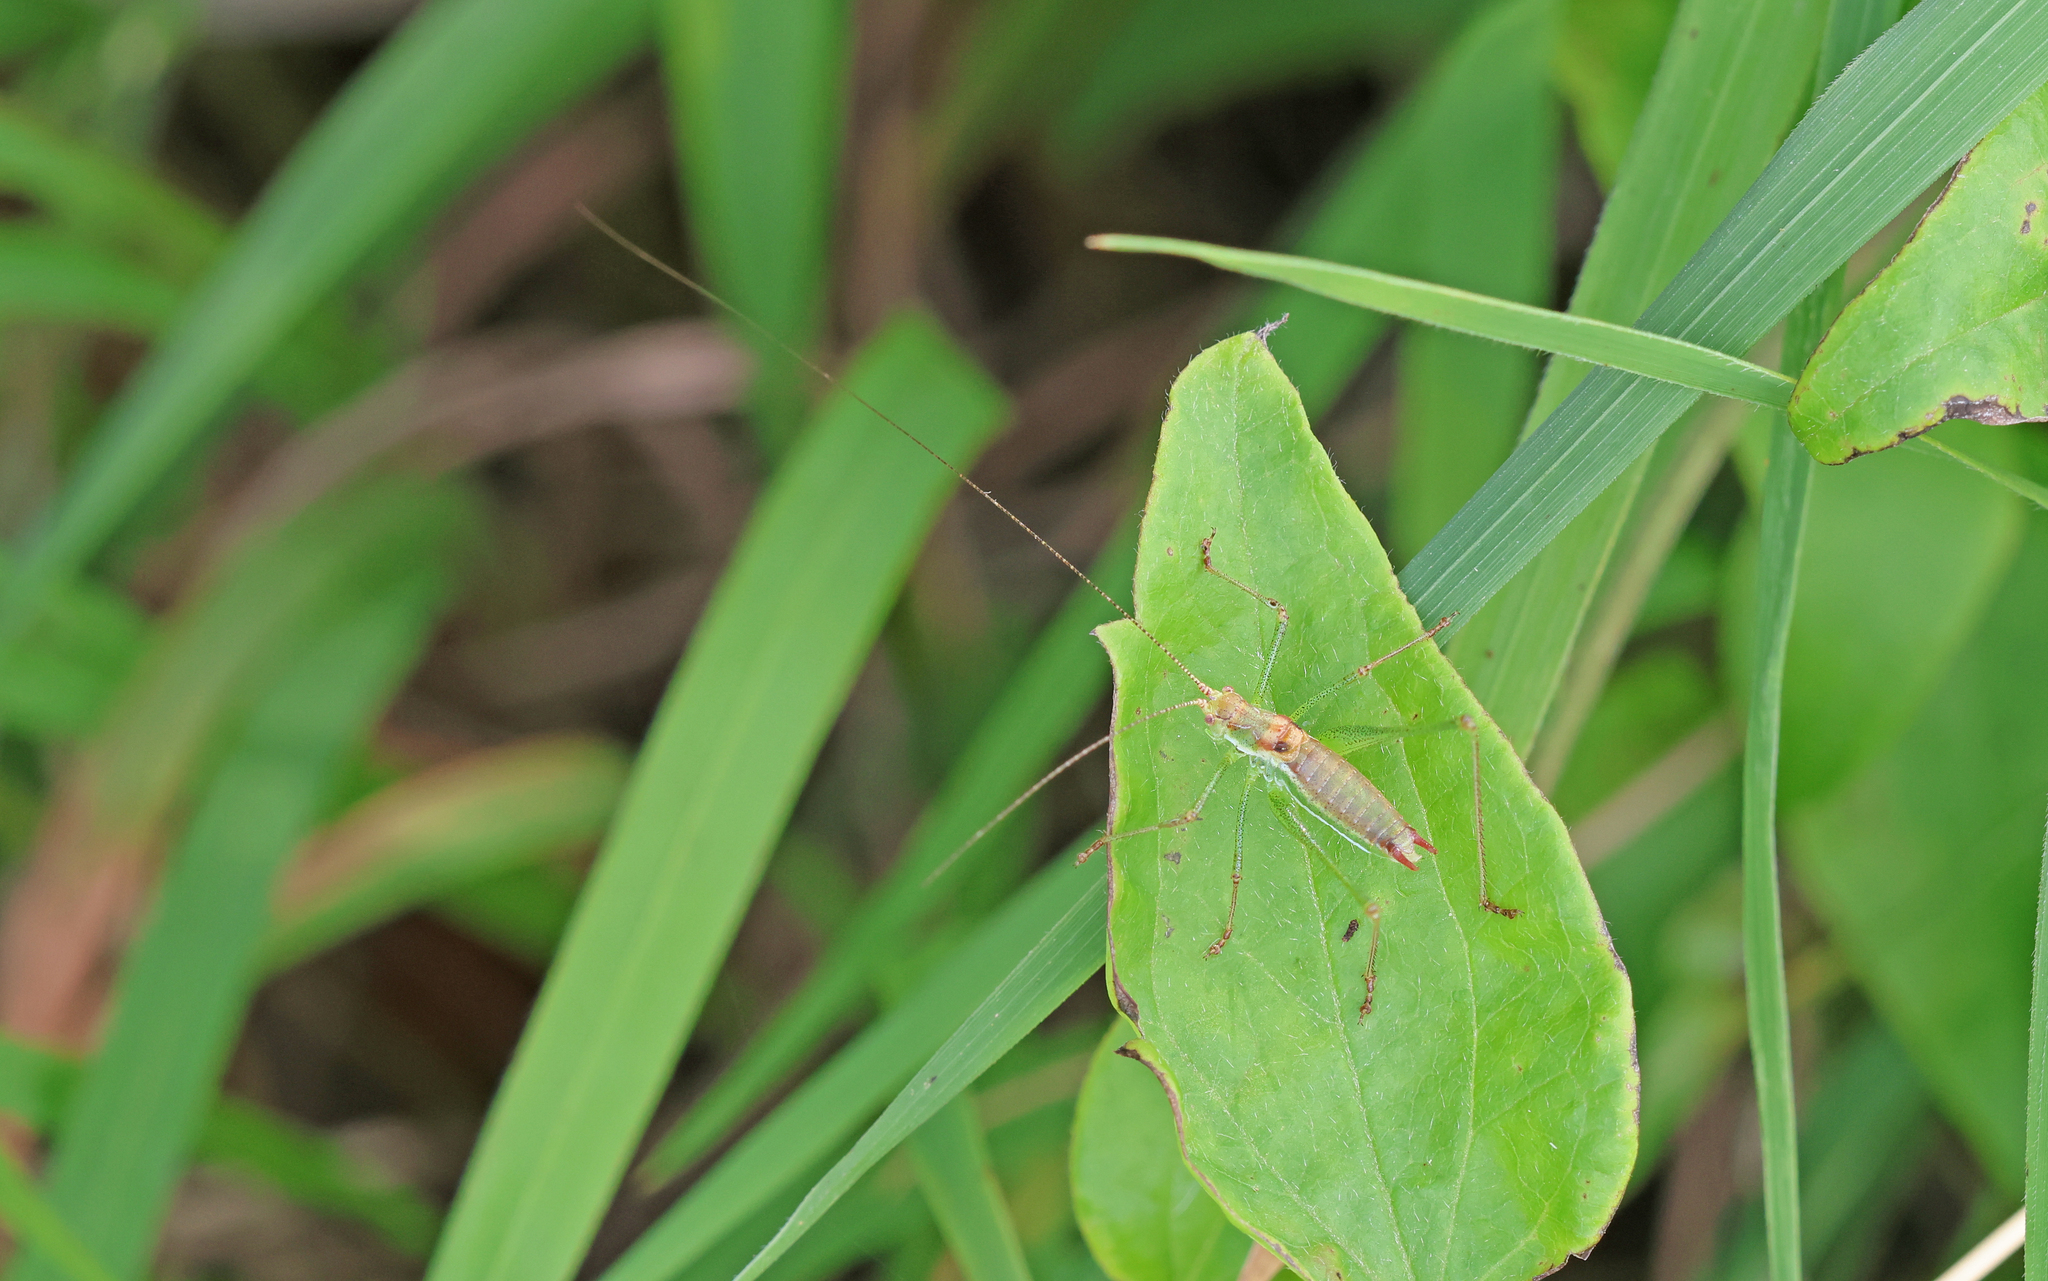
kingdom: Animalia
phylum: Arthropoda
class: Insecta
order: Orthoptera
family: Tettigoniidae
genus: Leptophyes
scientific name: Leptophyes albovittata
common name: Striped bush-cricket
